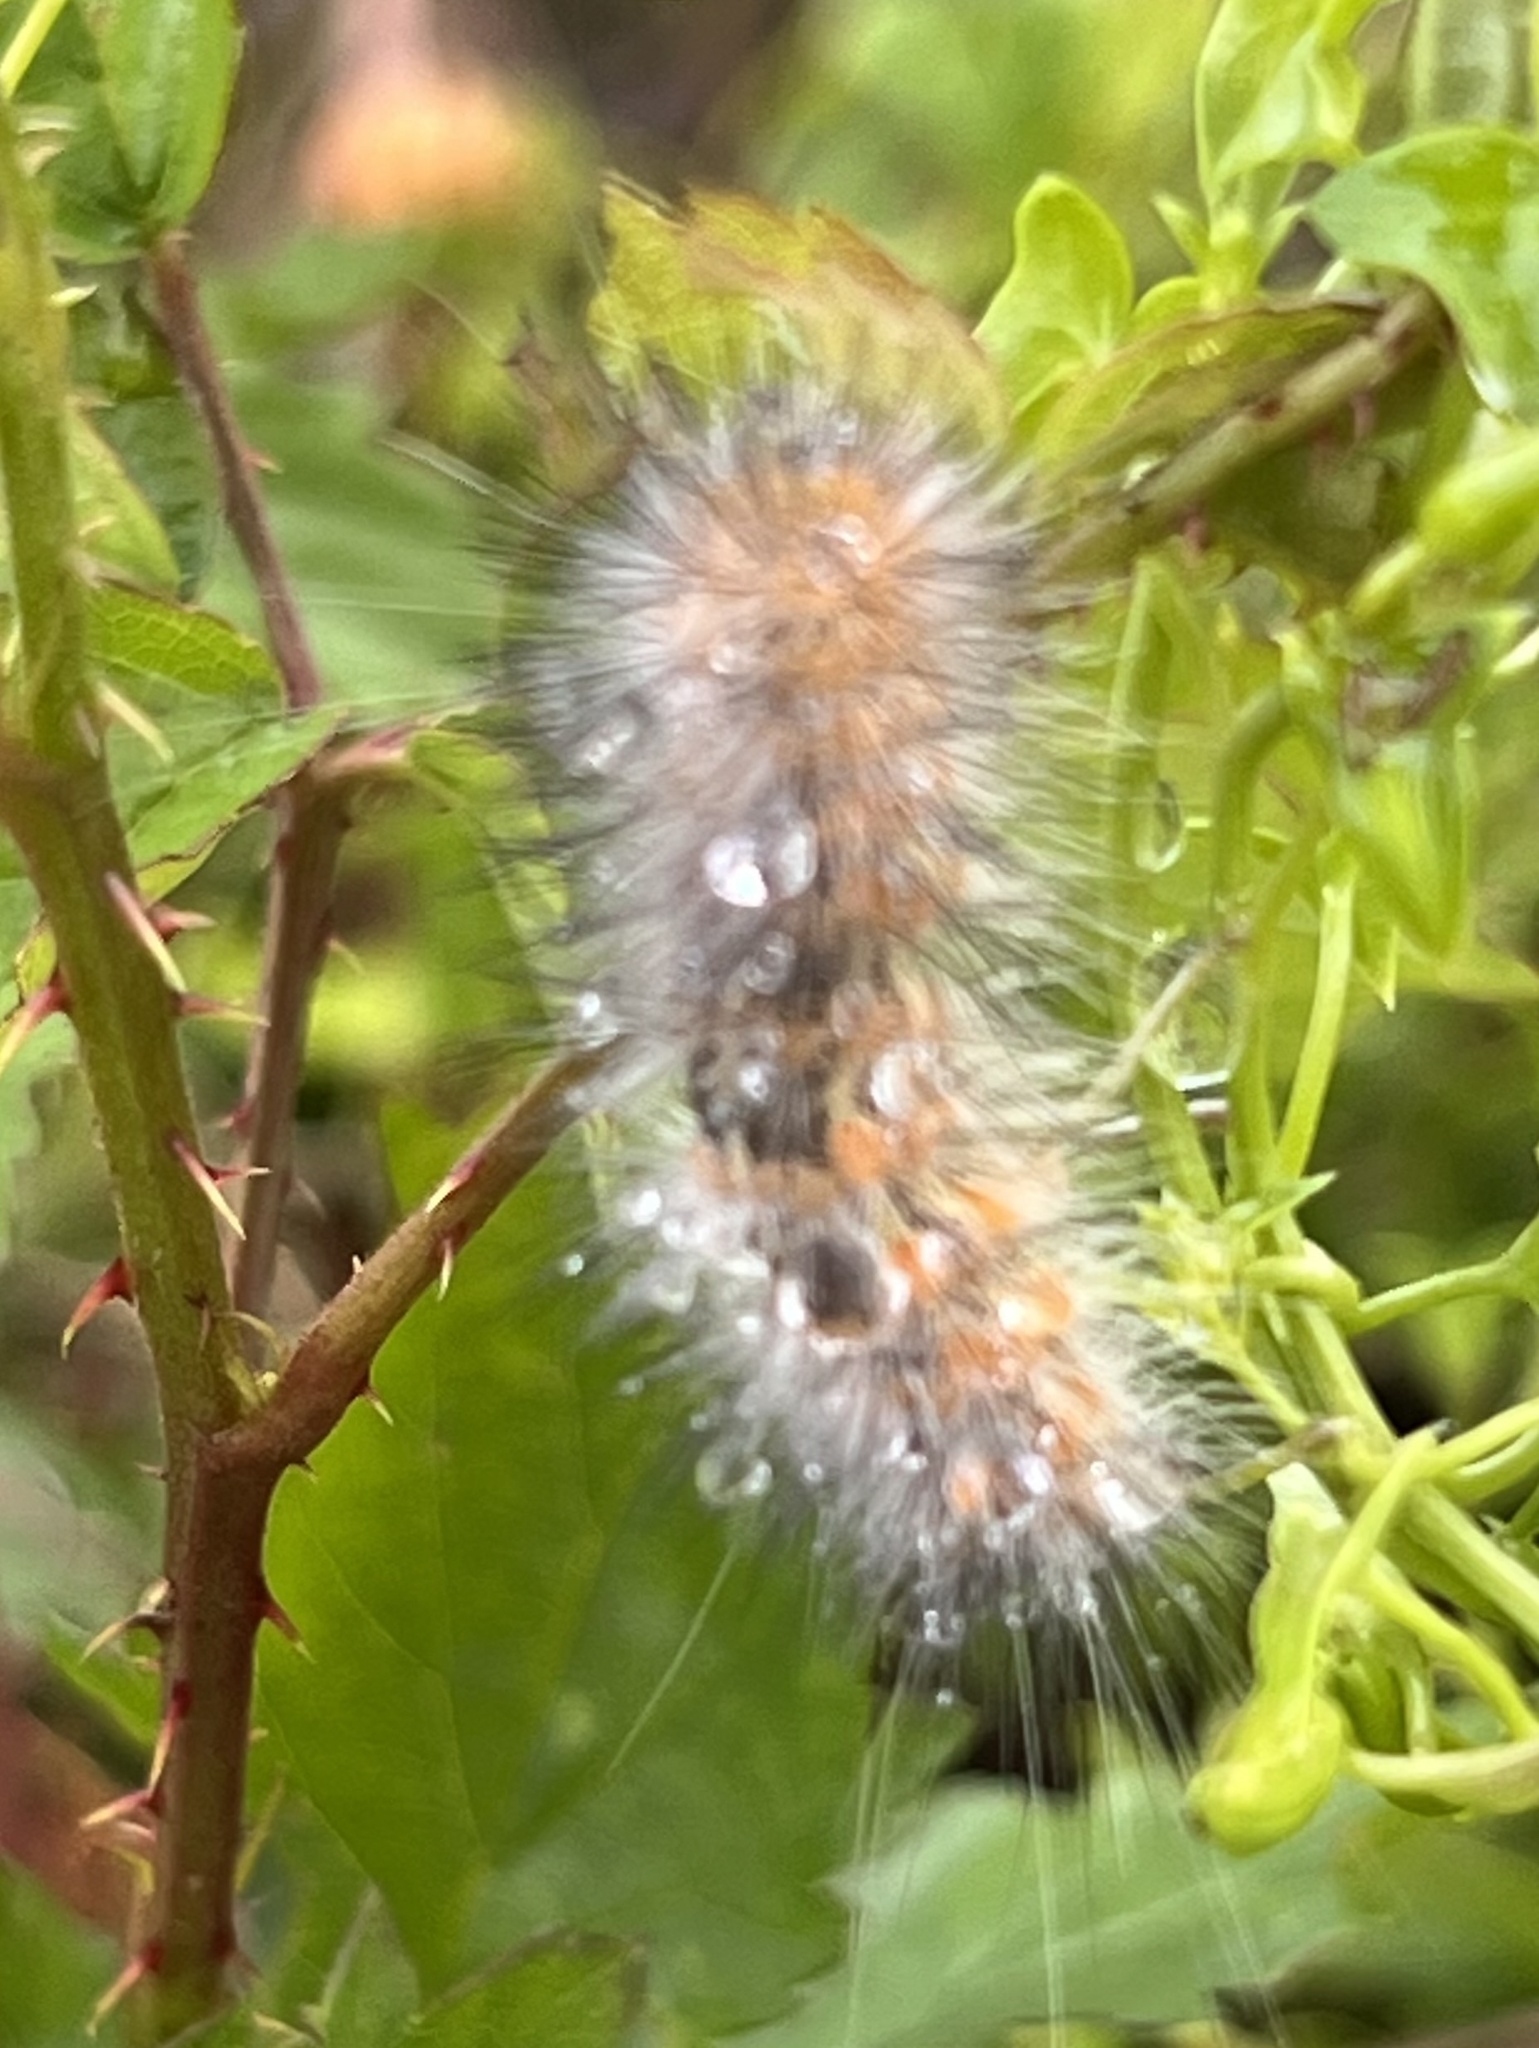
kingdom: Animalia
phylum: Arthropoda
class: Insecta
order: Lepidoptera
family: Erebidae
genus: Estigmene
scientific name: Estigmene acrea
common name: Salt marsh moth
